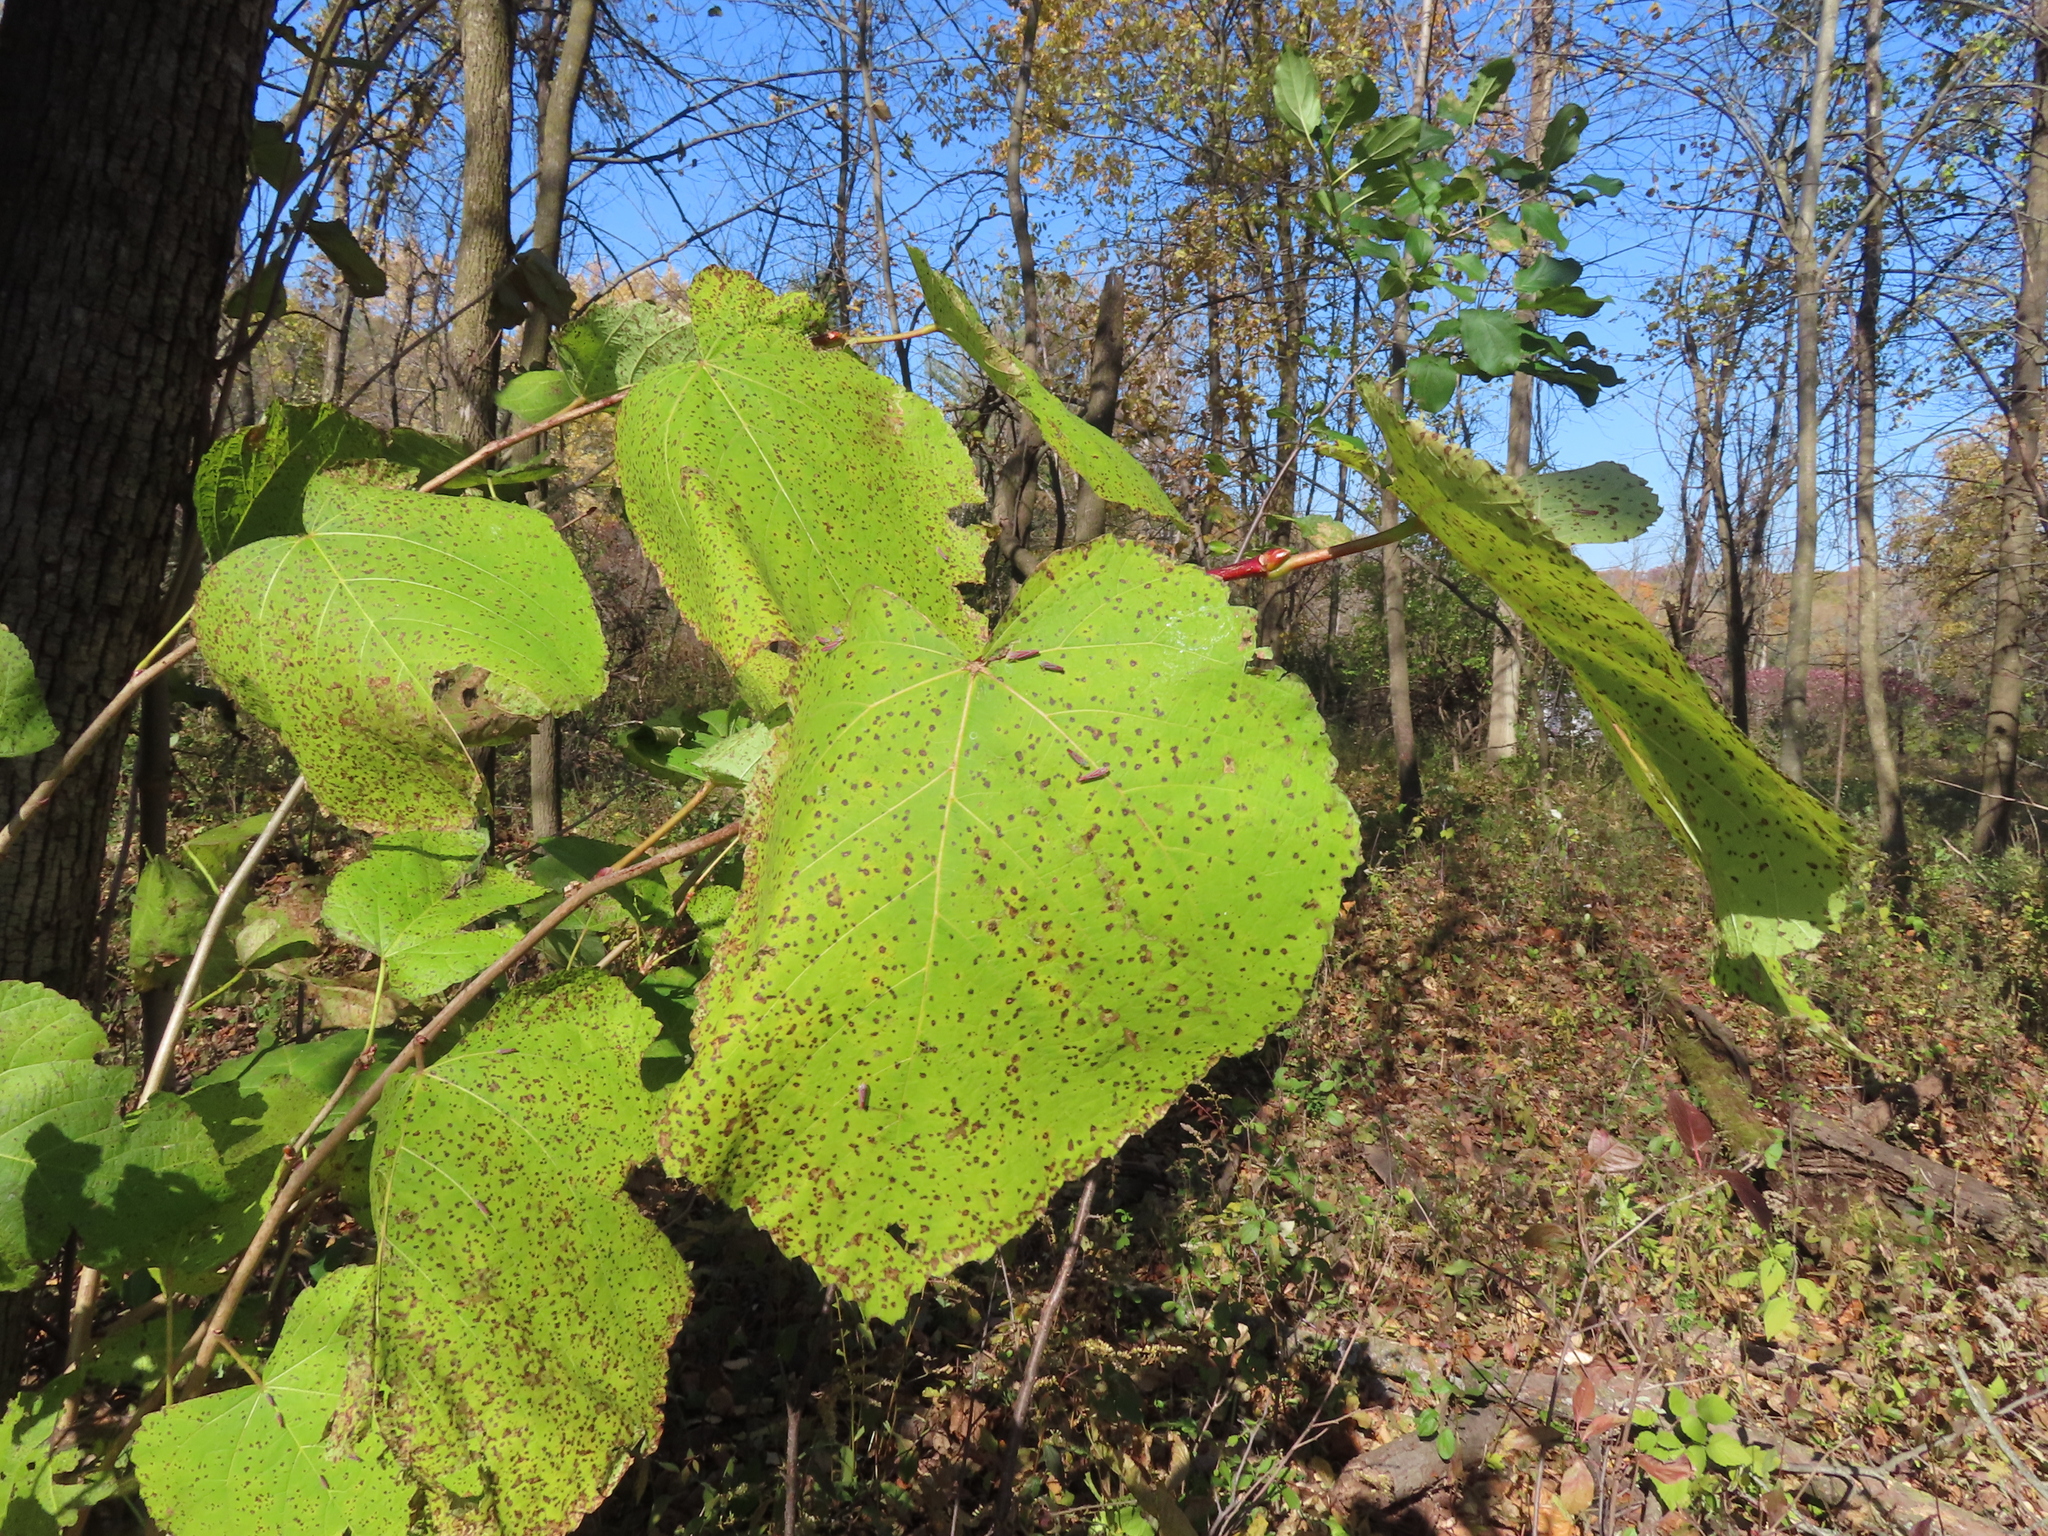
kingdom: Plantae
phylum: Tracheophyta
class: Magnoliopsida
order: Malvales
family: Malvaceae
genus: Tilia
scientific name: Tilia americana
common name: Basswood
